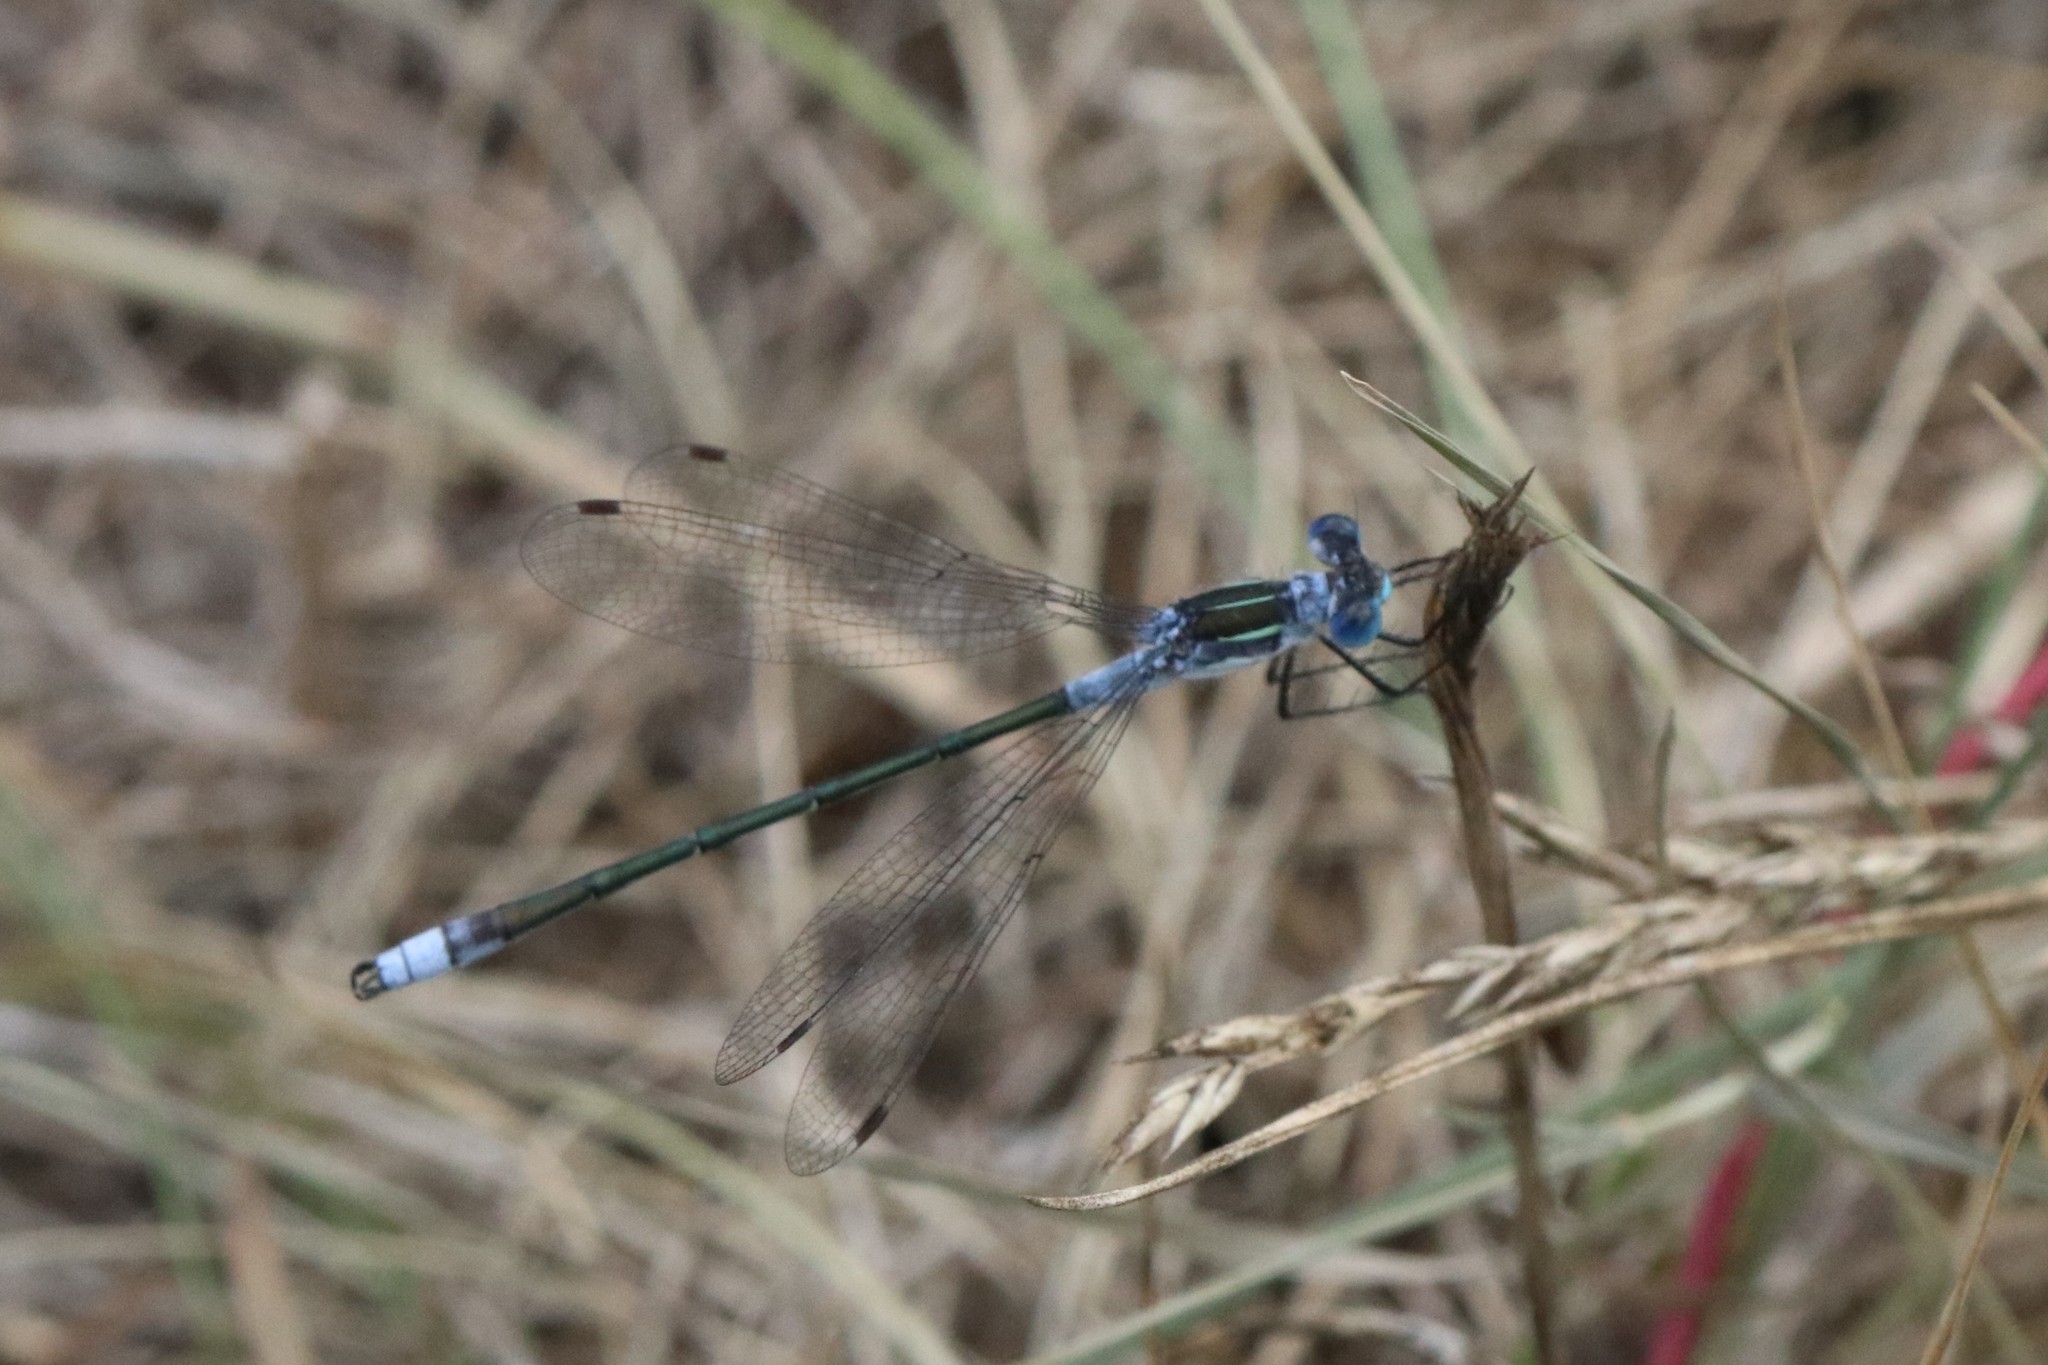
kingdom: Animalia
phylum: Arthropoda
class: Insecta
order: Odonata
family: Lestidae
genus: Lestes
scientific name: Lestes disjunctus
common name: Northern spreadwing
